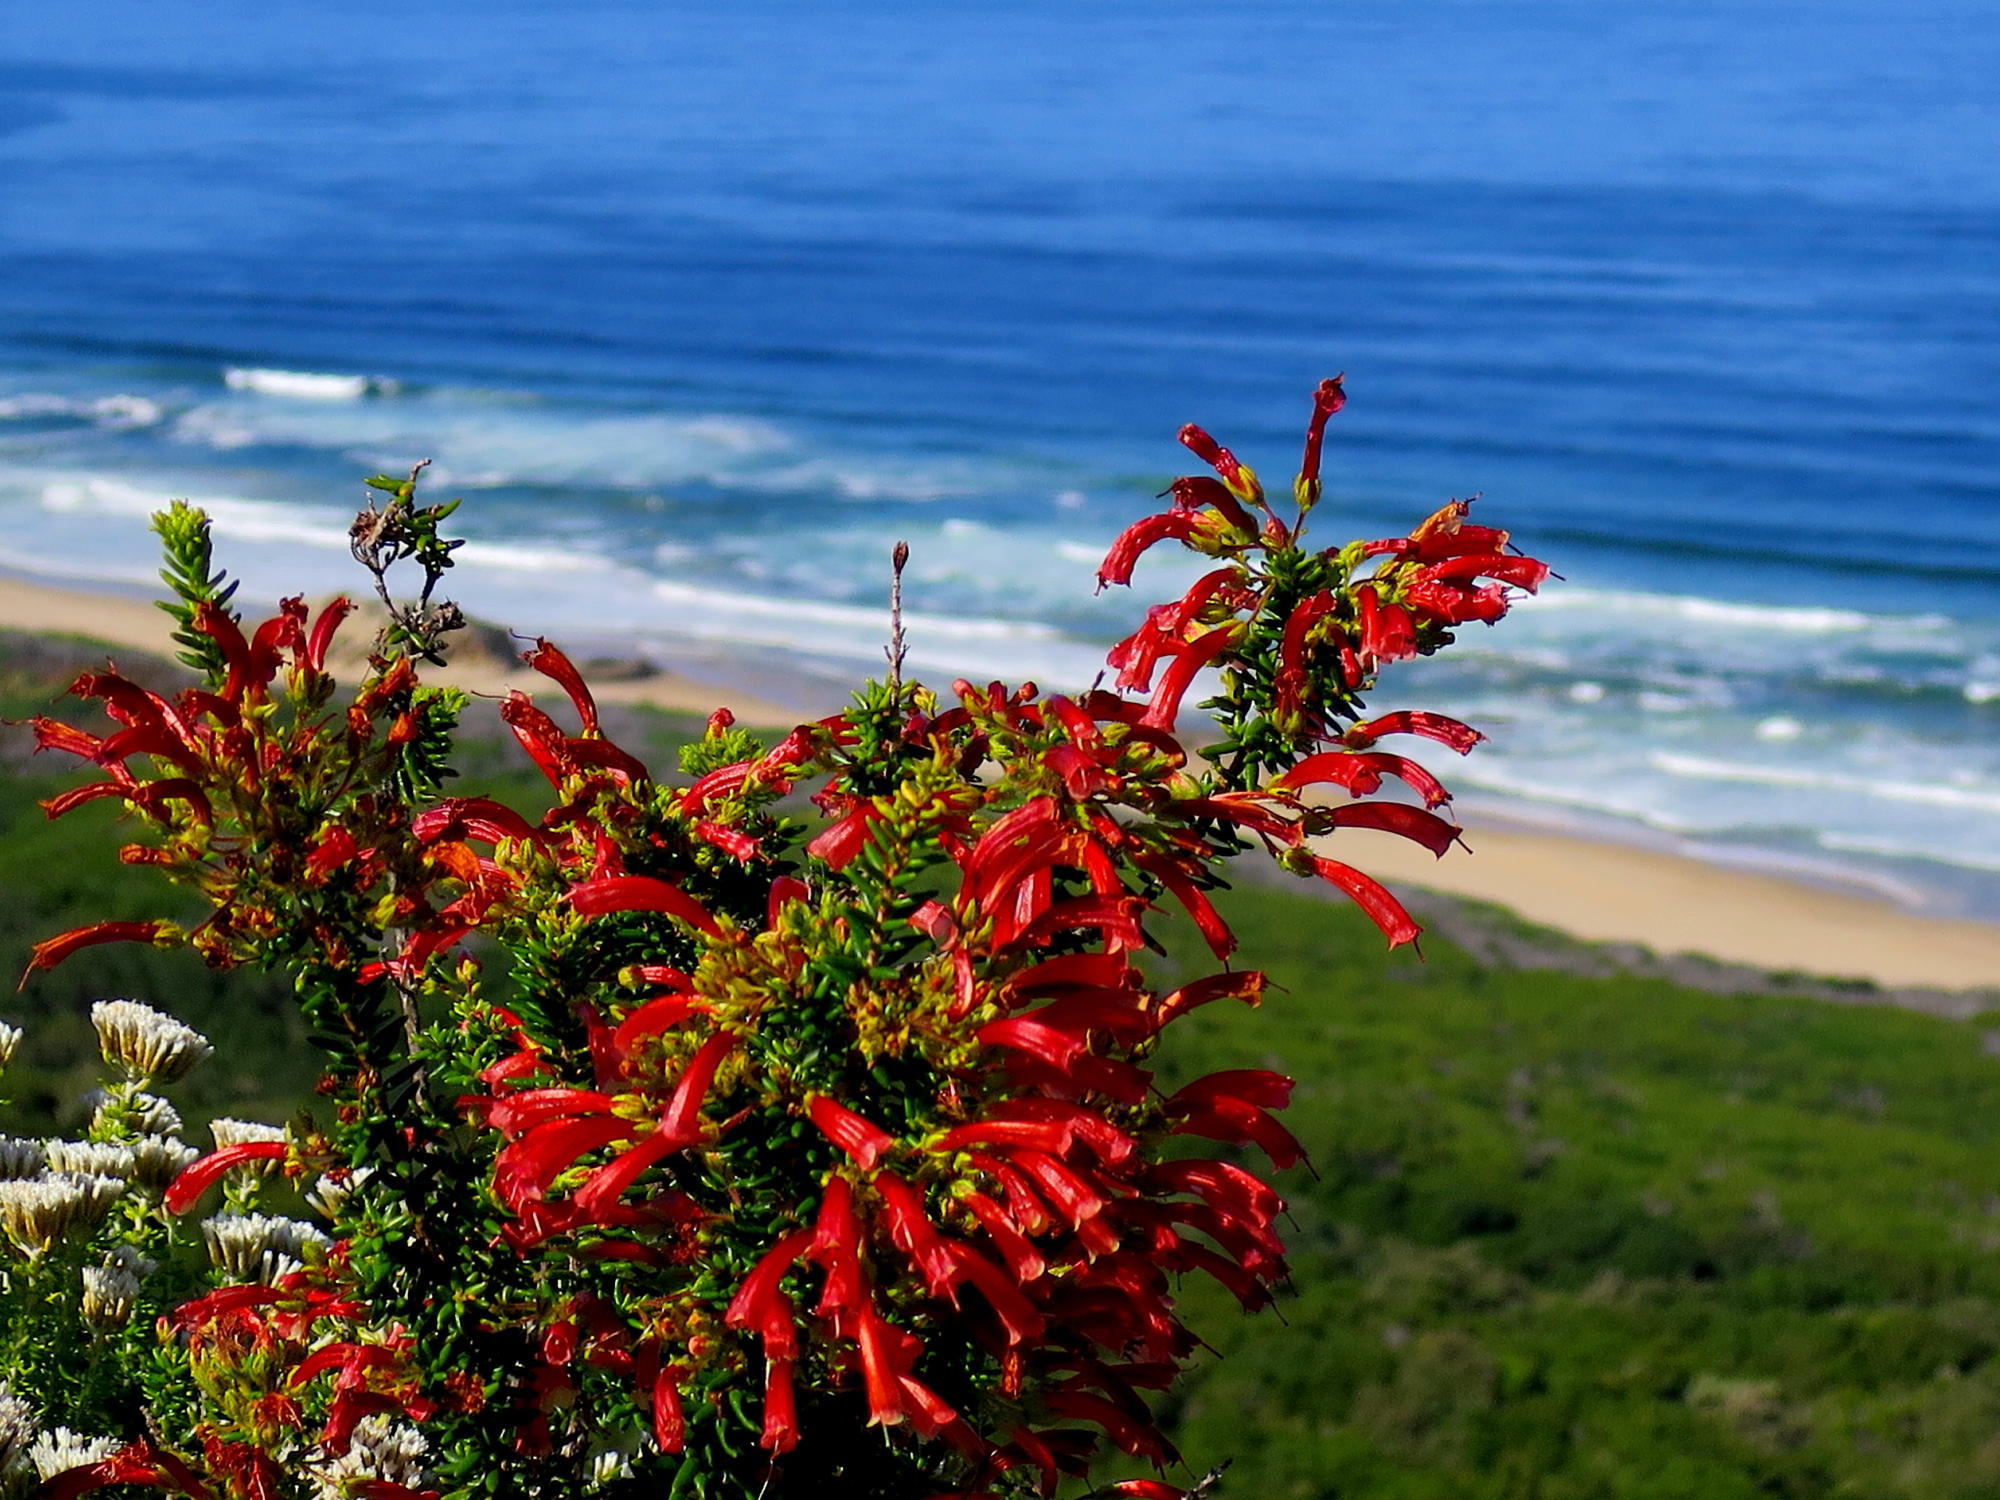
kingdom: Plantae
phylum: Tracheophyta
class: Magnoliopsida
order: Ericales
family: Ericaceae
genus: Erica
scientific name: Erica glandulosa
